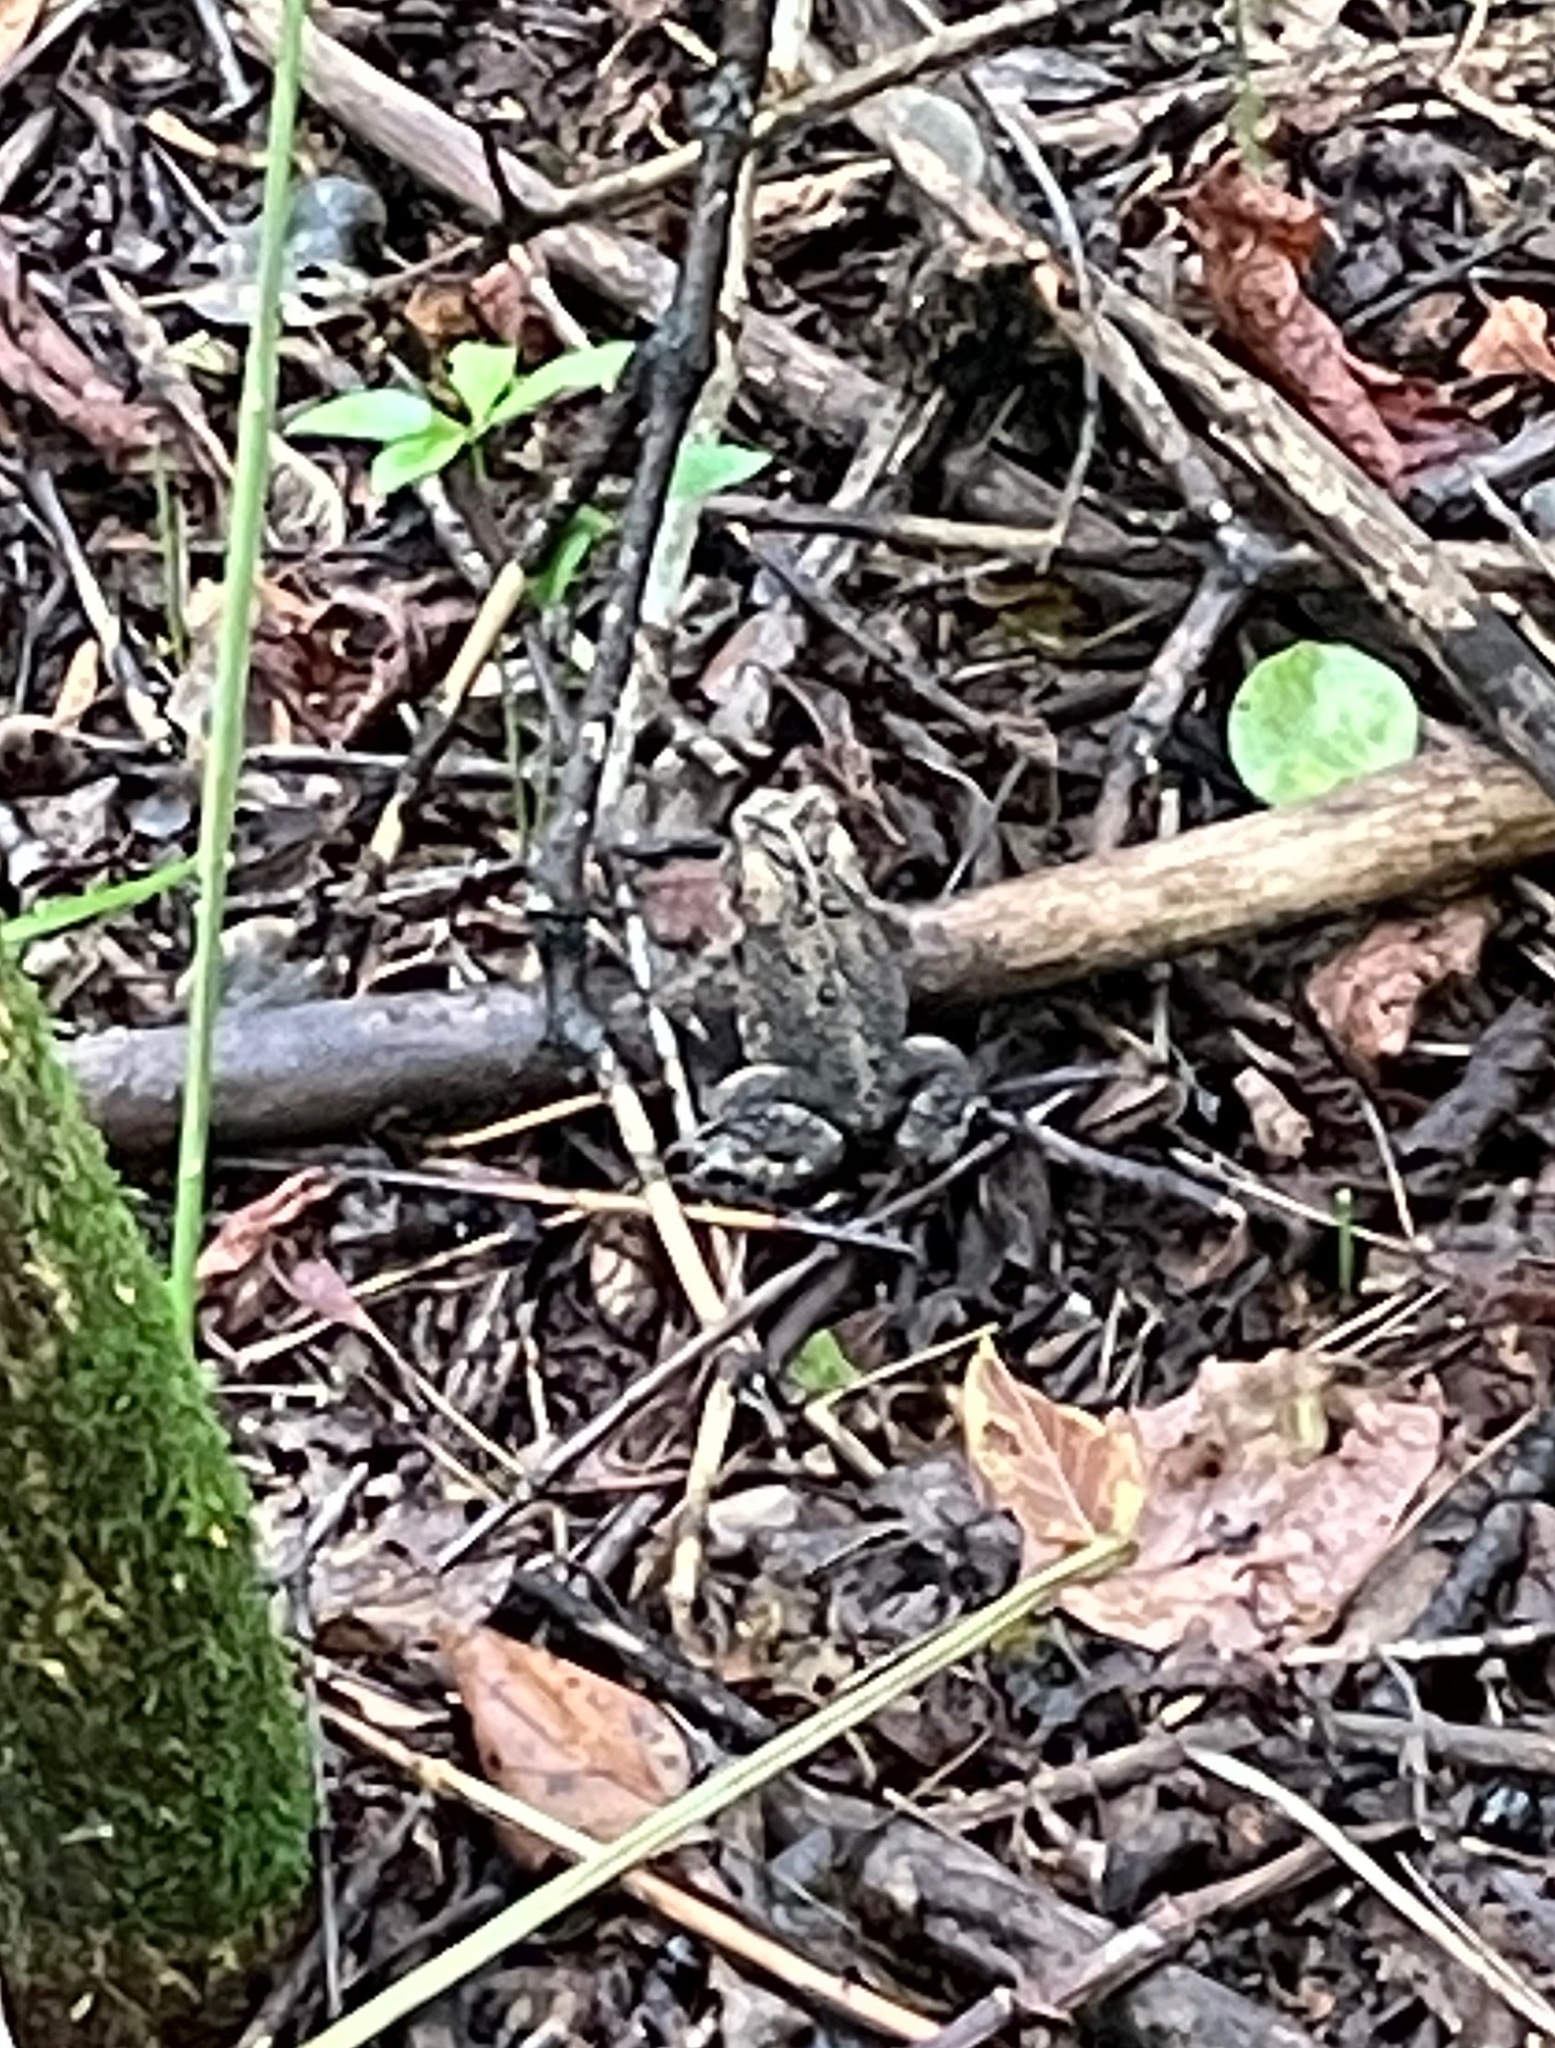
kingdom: Animalia
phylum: Chordata
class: Amphibia
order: Anura
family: Bufonidae
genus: Anaxyrus
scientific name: Anaxyrus americanus
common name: American toad
